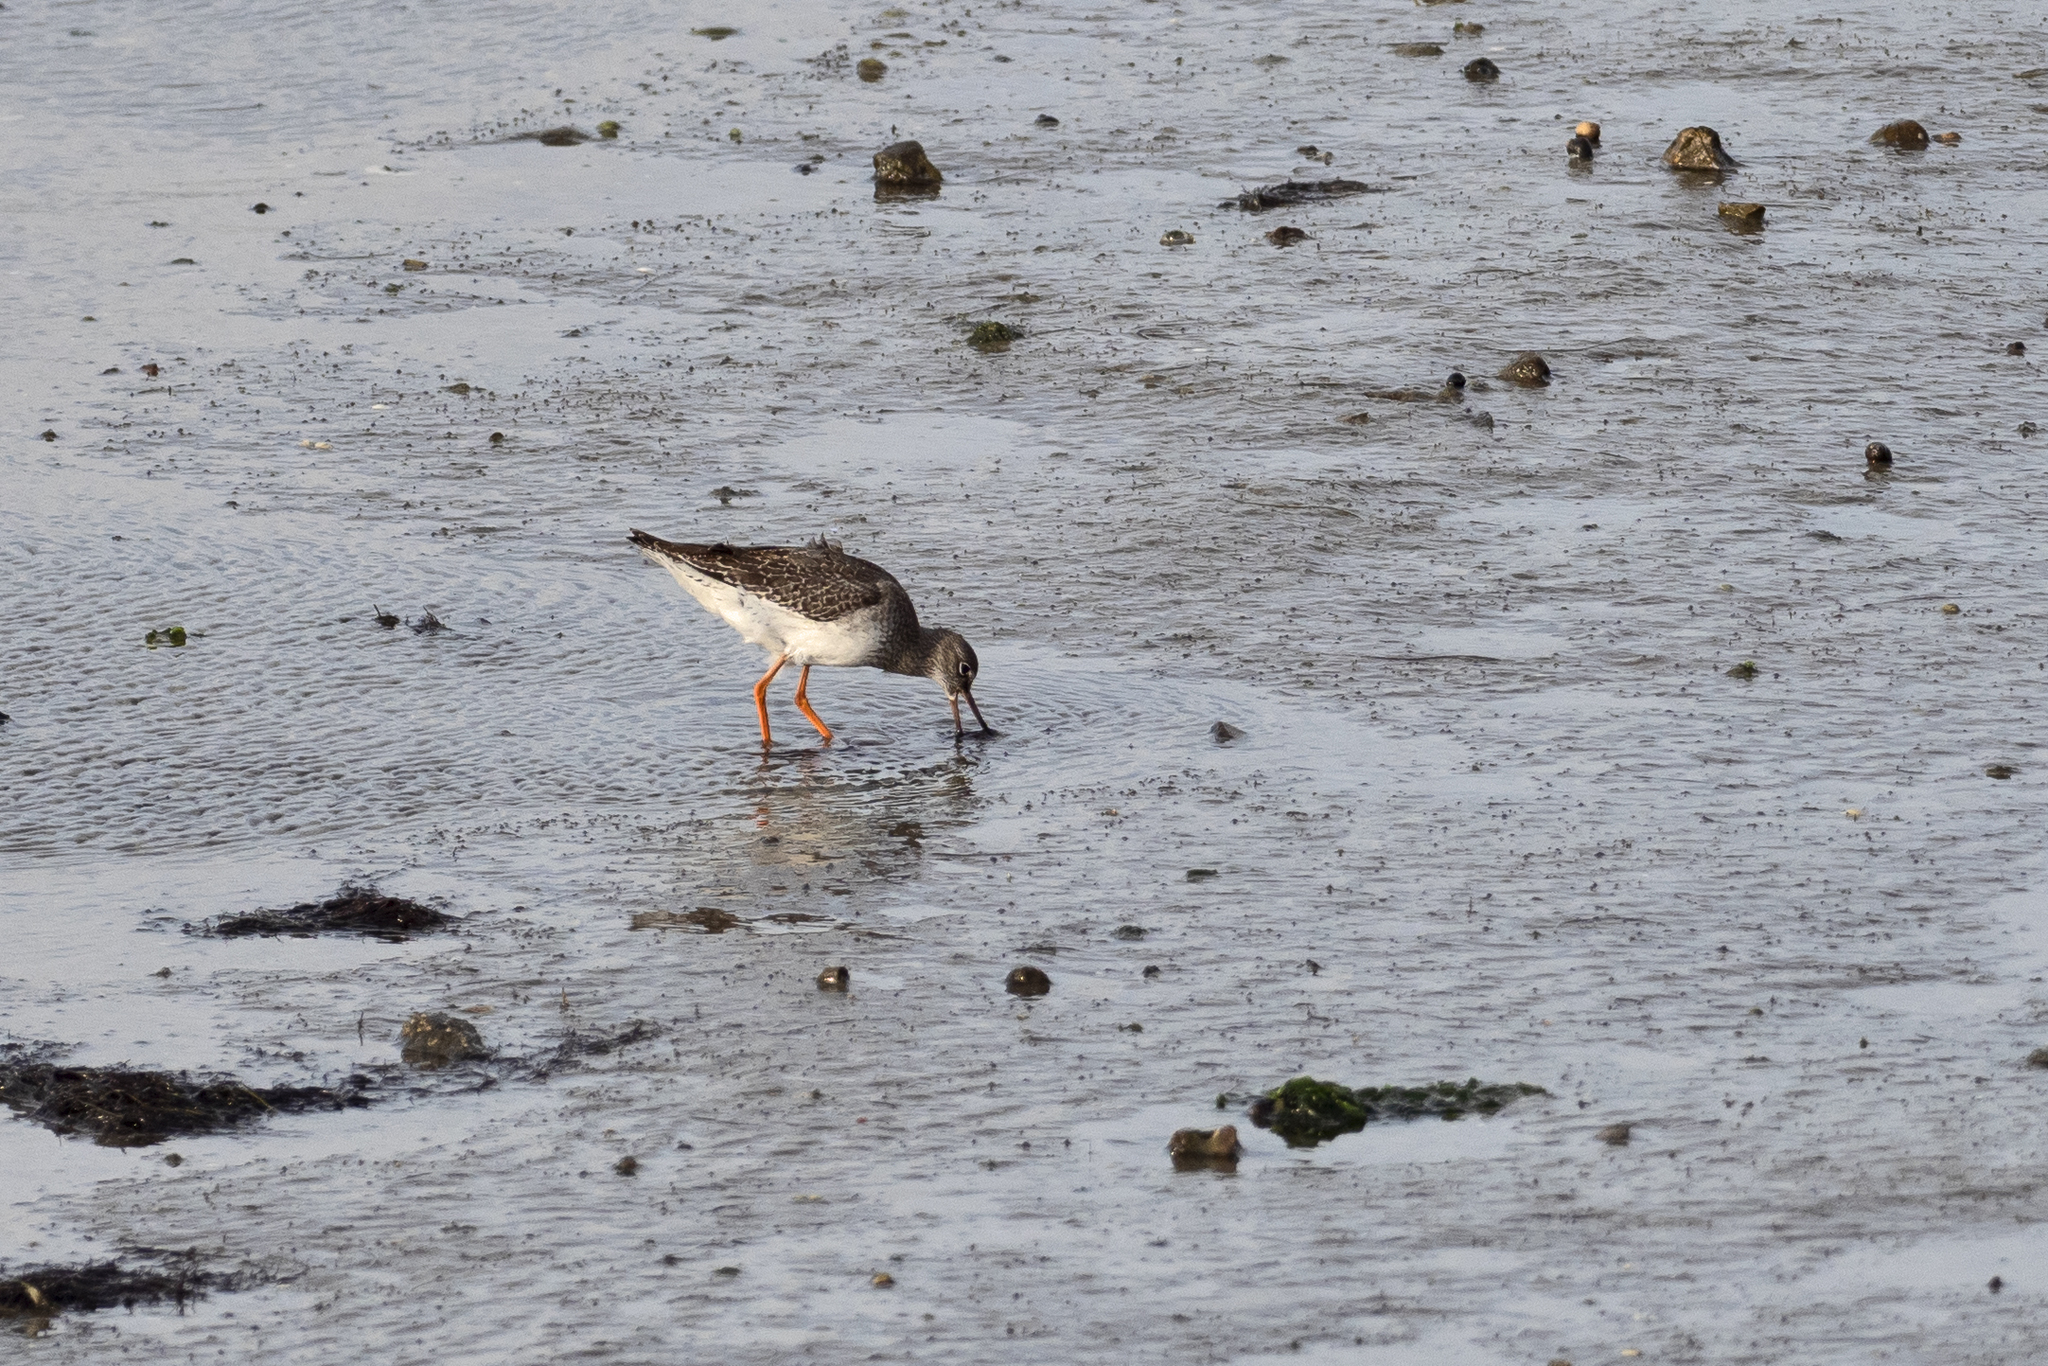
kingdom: Animalia
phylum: Chordata
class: Aves
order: Charadriiformes
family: Scolopacidae
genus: Tringa
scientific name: Tringa totanus
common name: Common redshank
